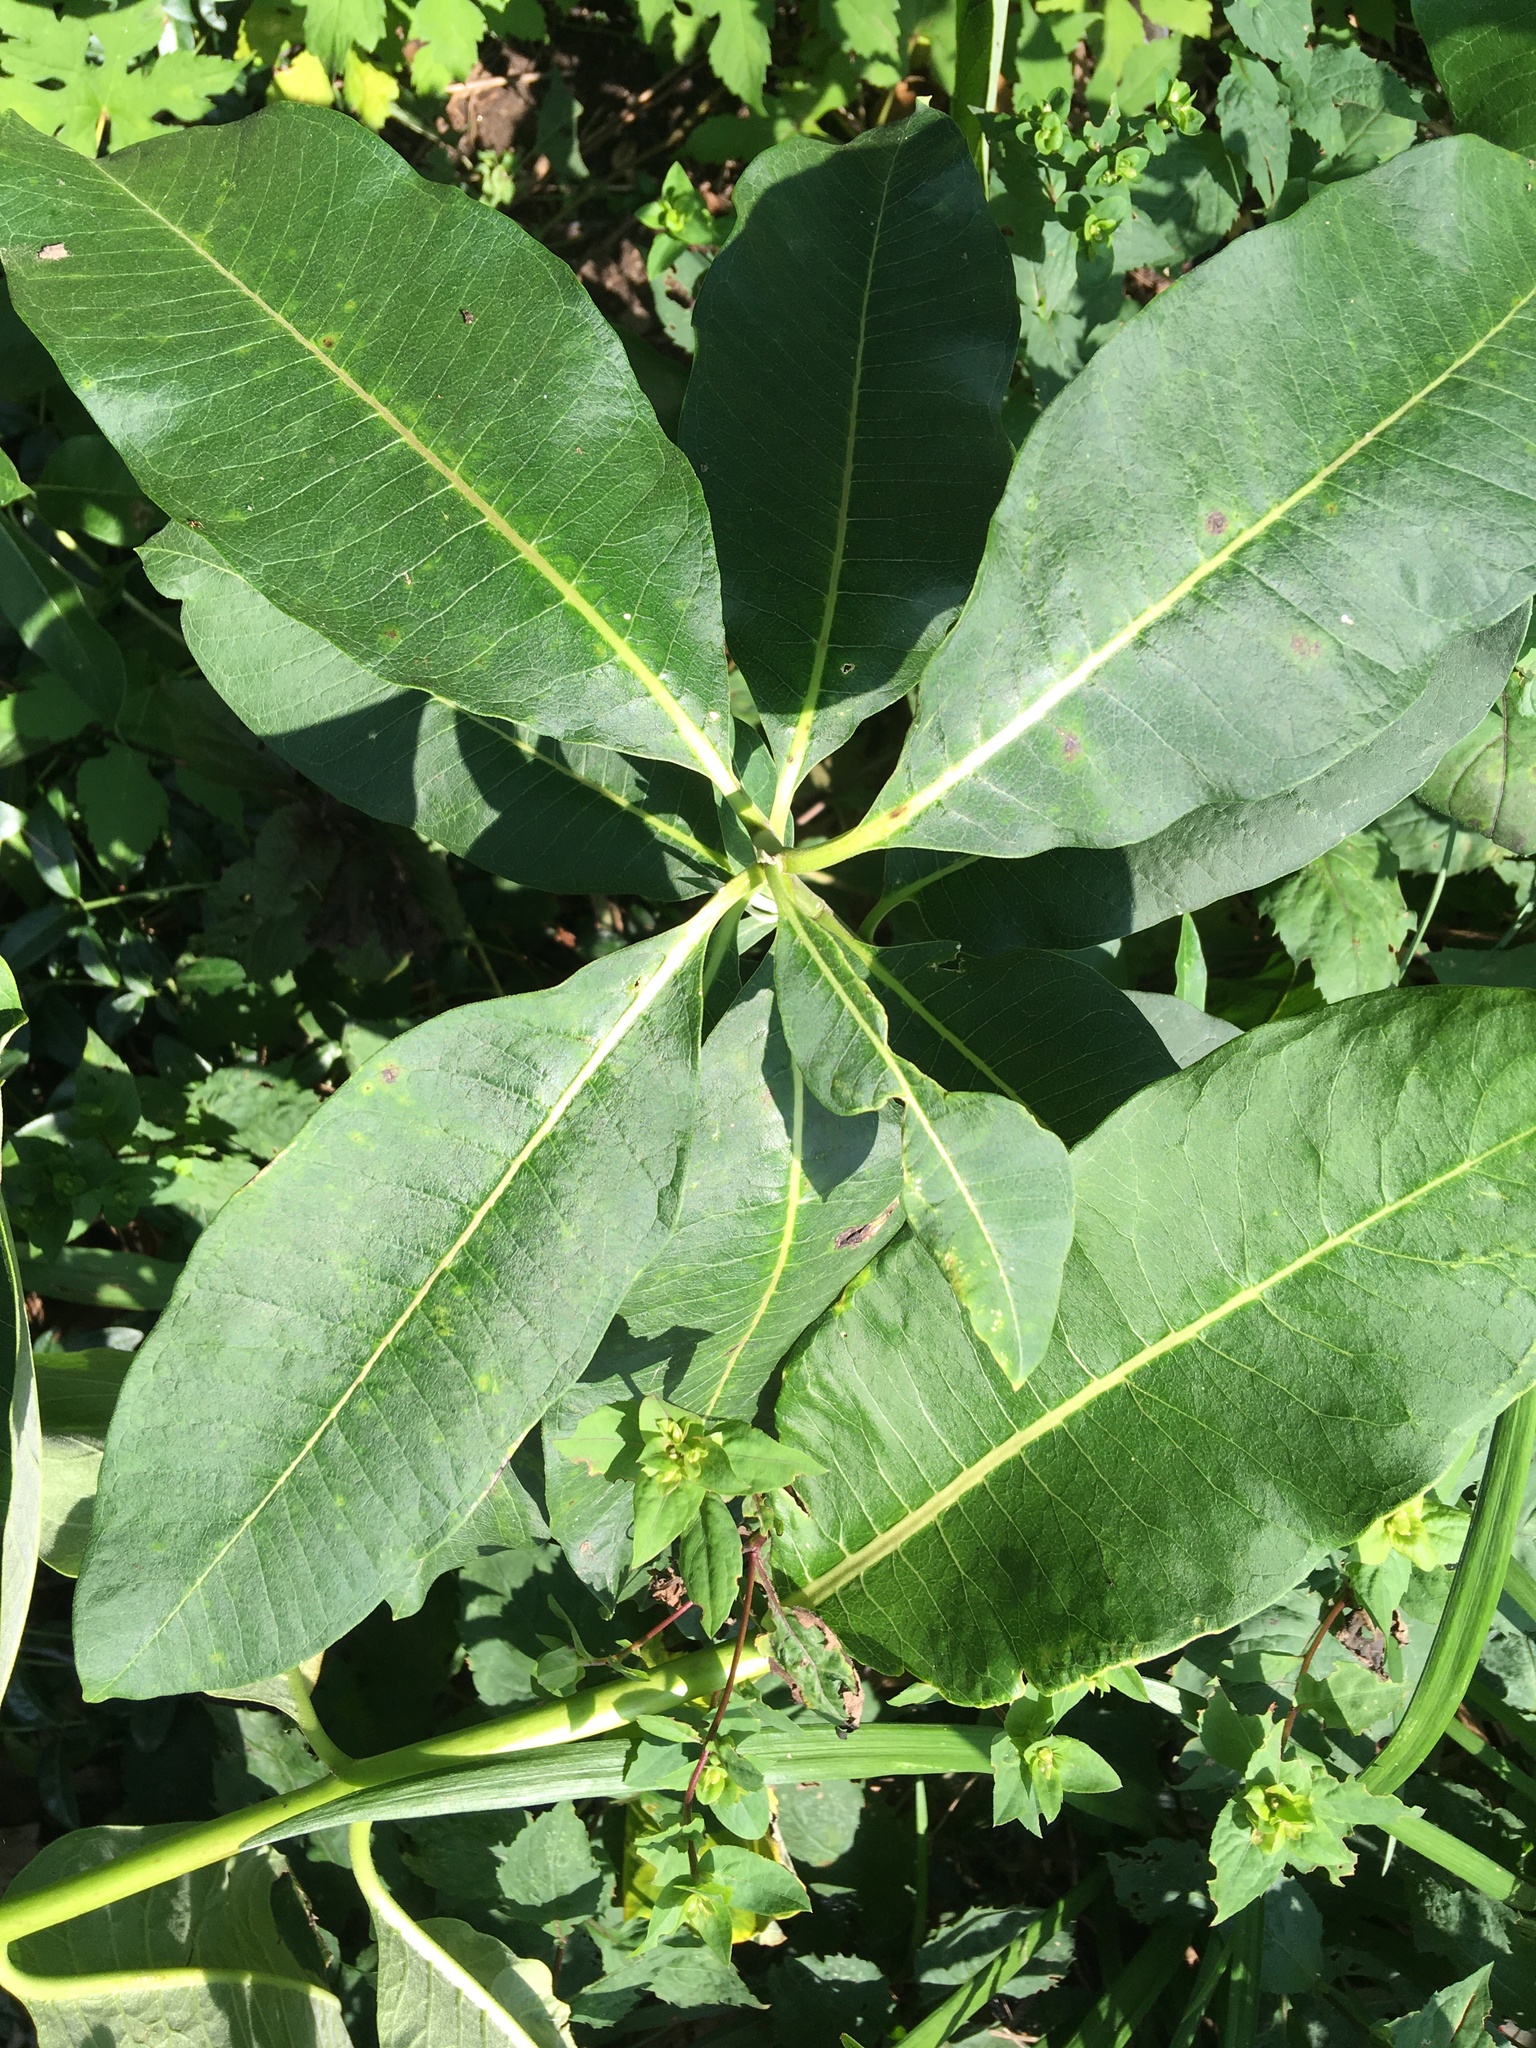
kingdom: Plantae
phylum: Tracheophyta
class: Magnoliopsida
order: Gentianales
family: Apocynaceae
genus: Asclepias
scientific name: Asclepias syriaca
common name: Common milkweed
